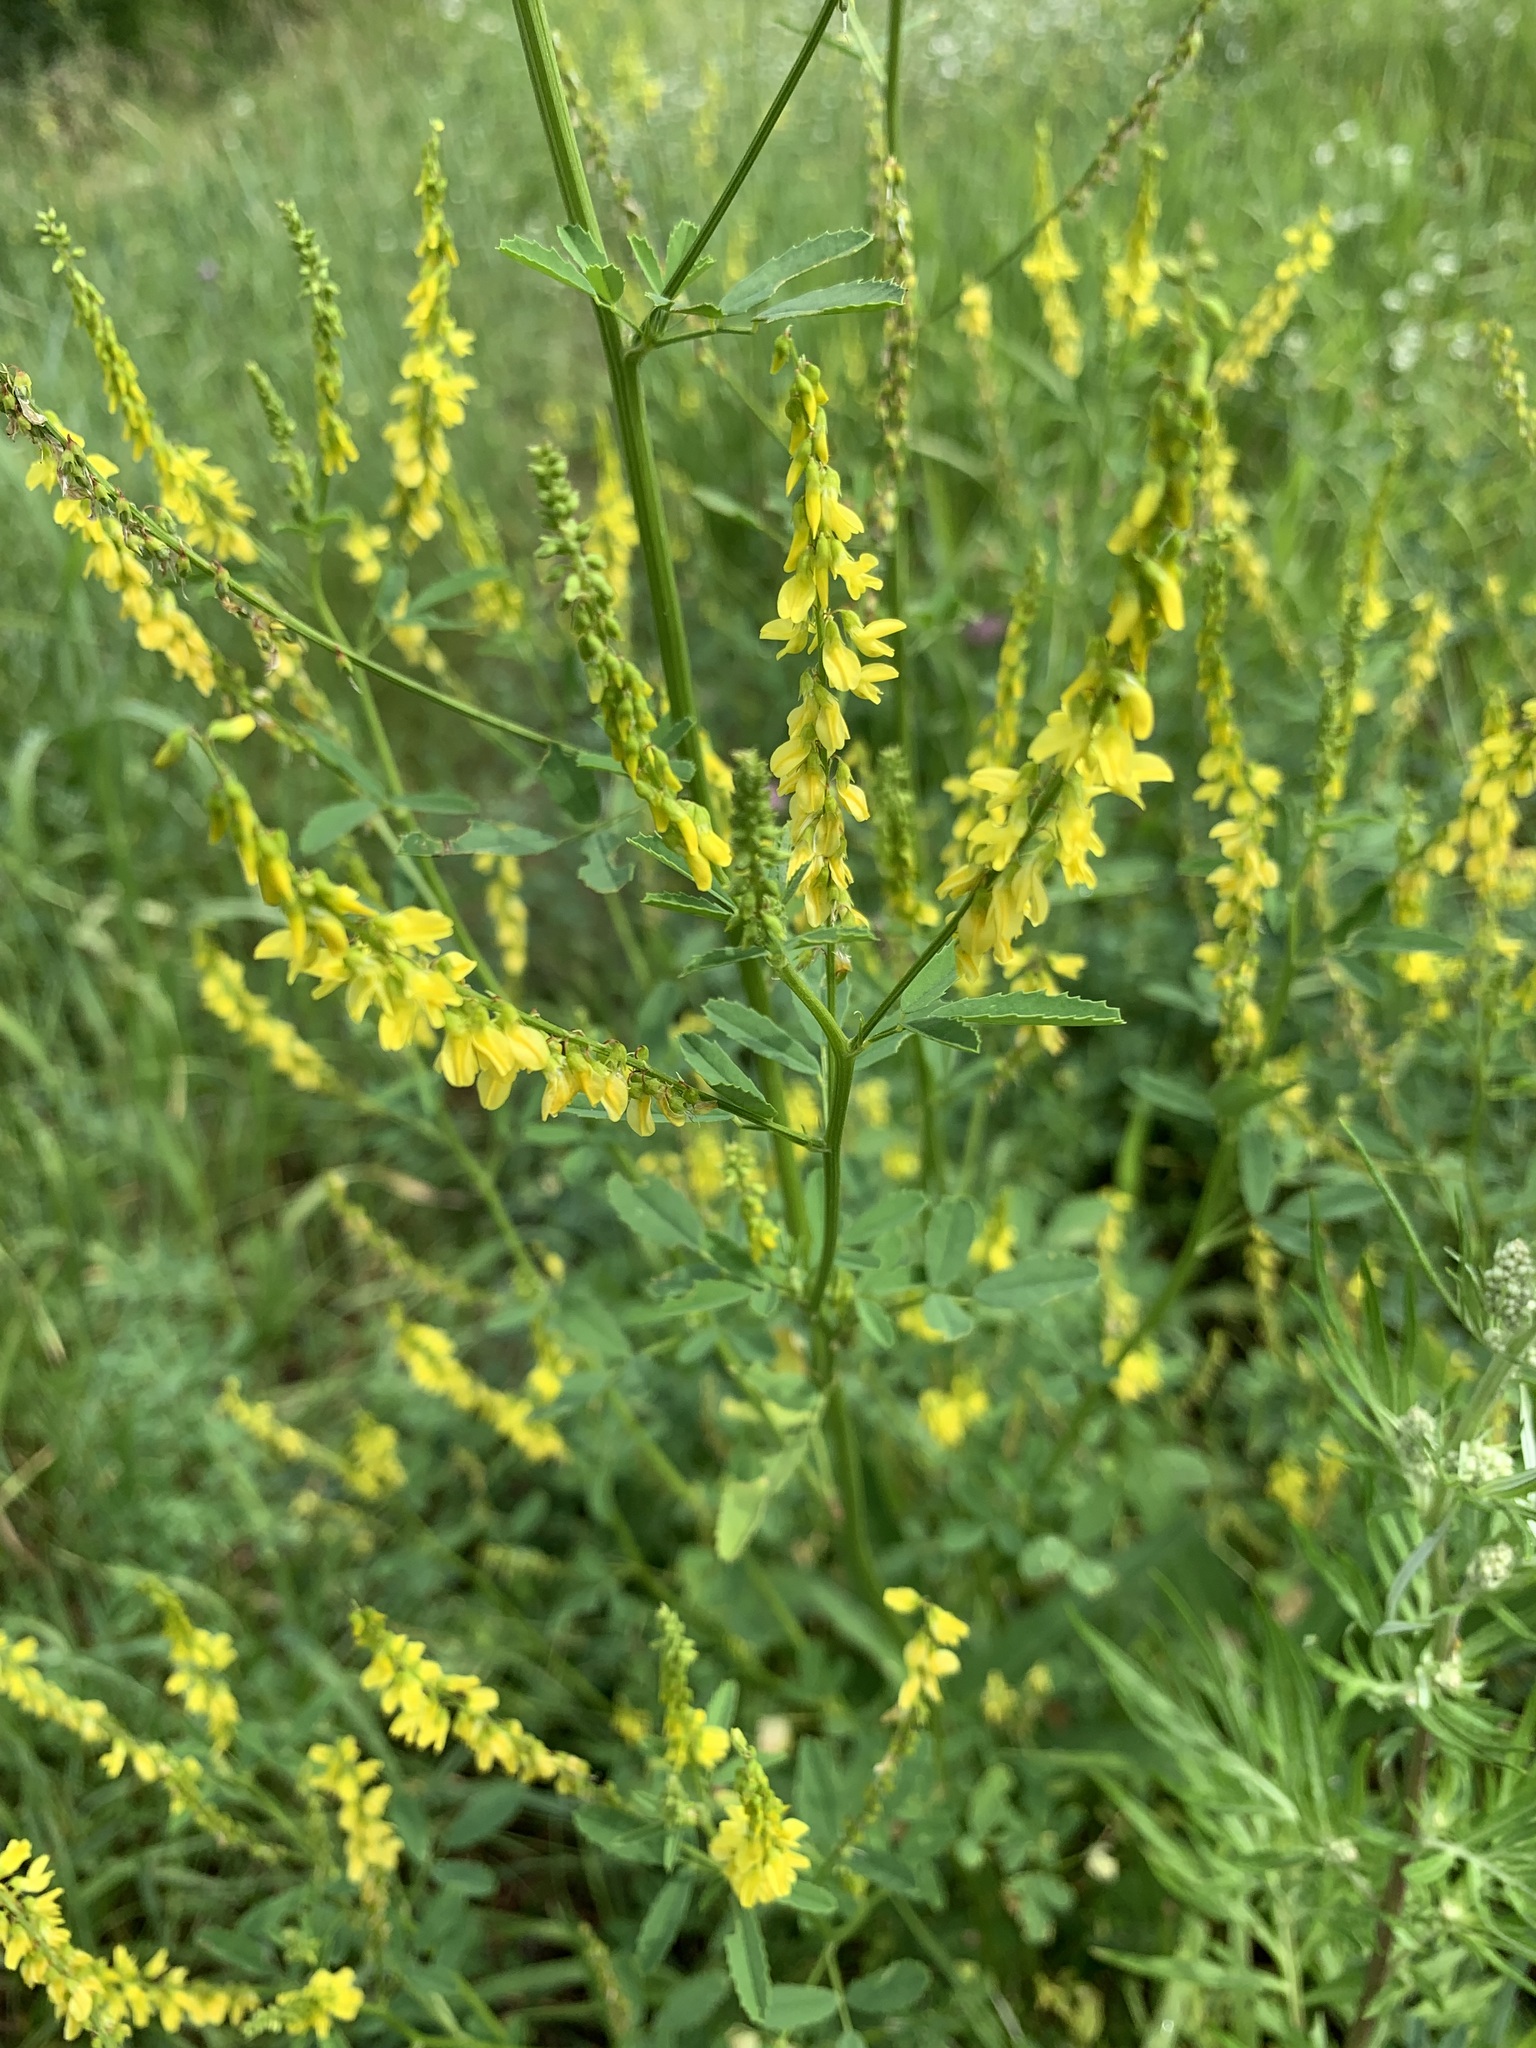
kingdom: Plantae
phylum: Tracheophyta
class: Magnoliopsida
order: Fabales
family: Fabaceae
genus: Melilotus
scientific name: Melilotus officinalis
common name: Sweetclover
